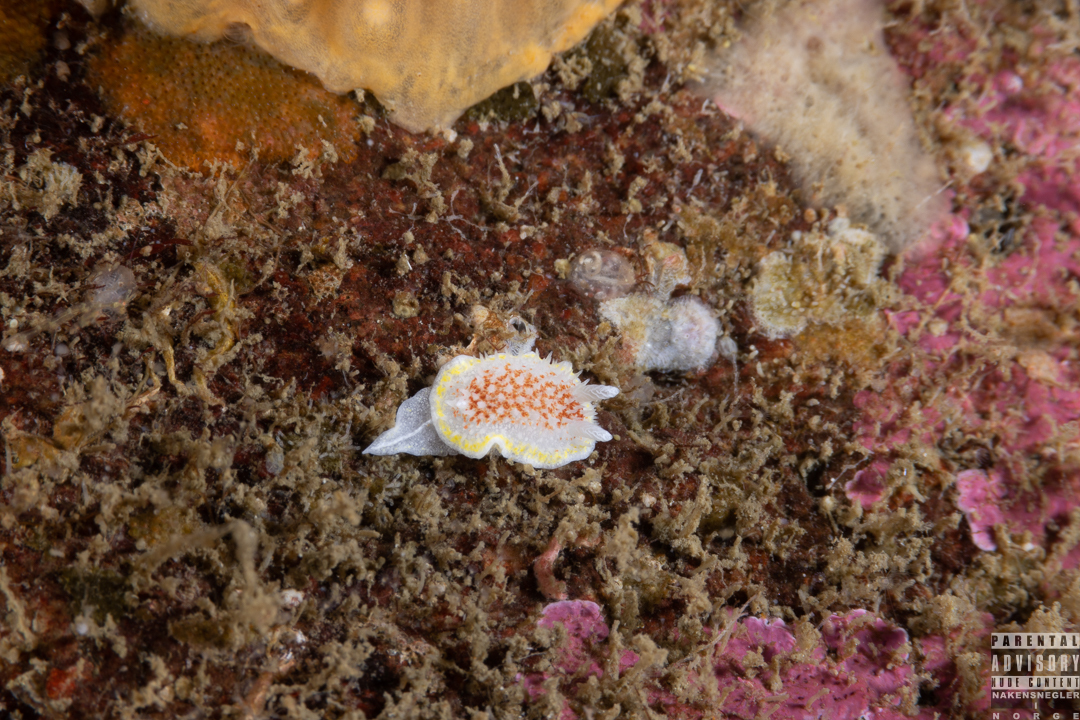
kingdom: Animalia
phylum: Mollusca
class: Gastropoda
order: Nudibranchia
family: Calycidorididae
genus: Diaphorodoris
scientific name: Diaphorodoris luteocincta
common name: Fried egg nudibranch
